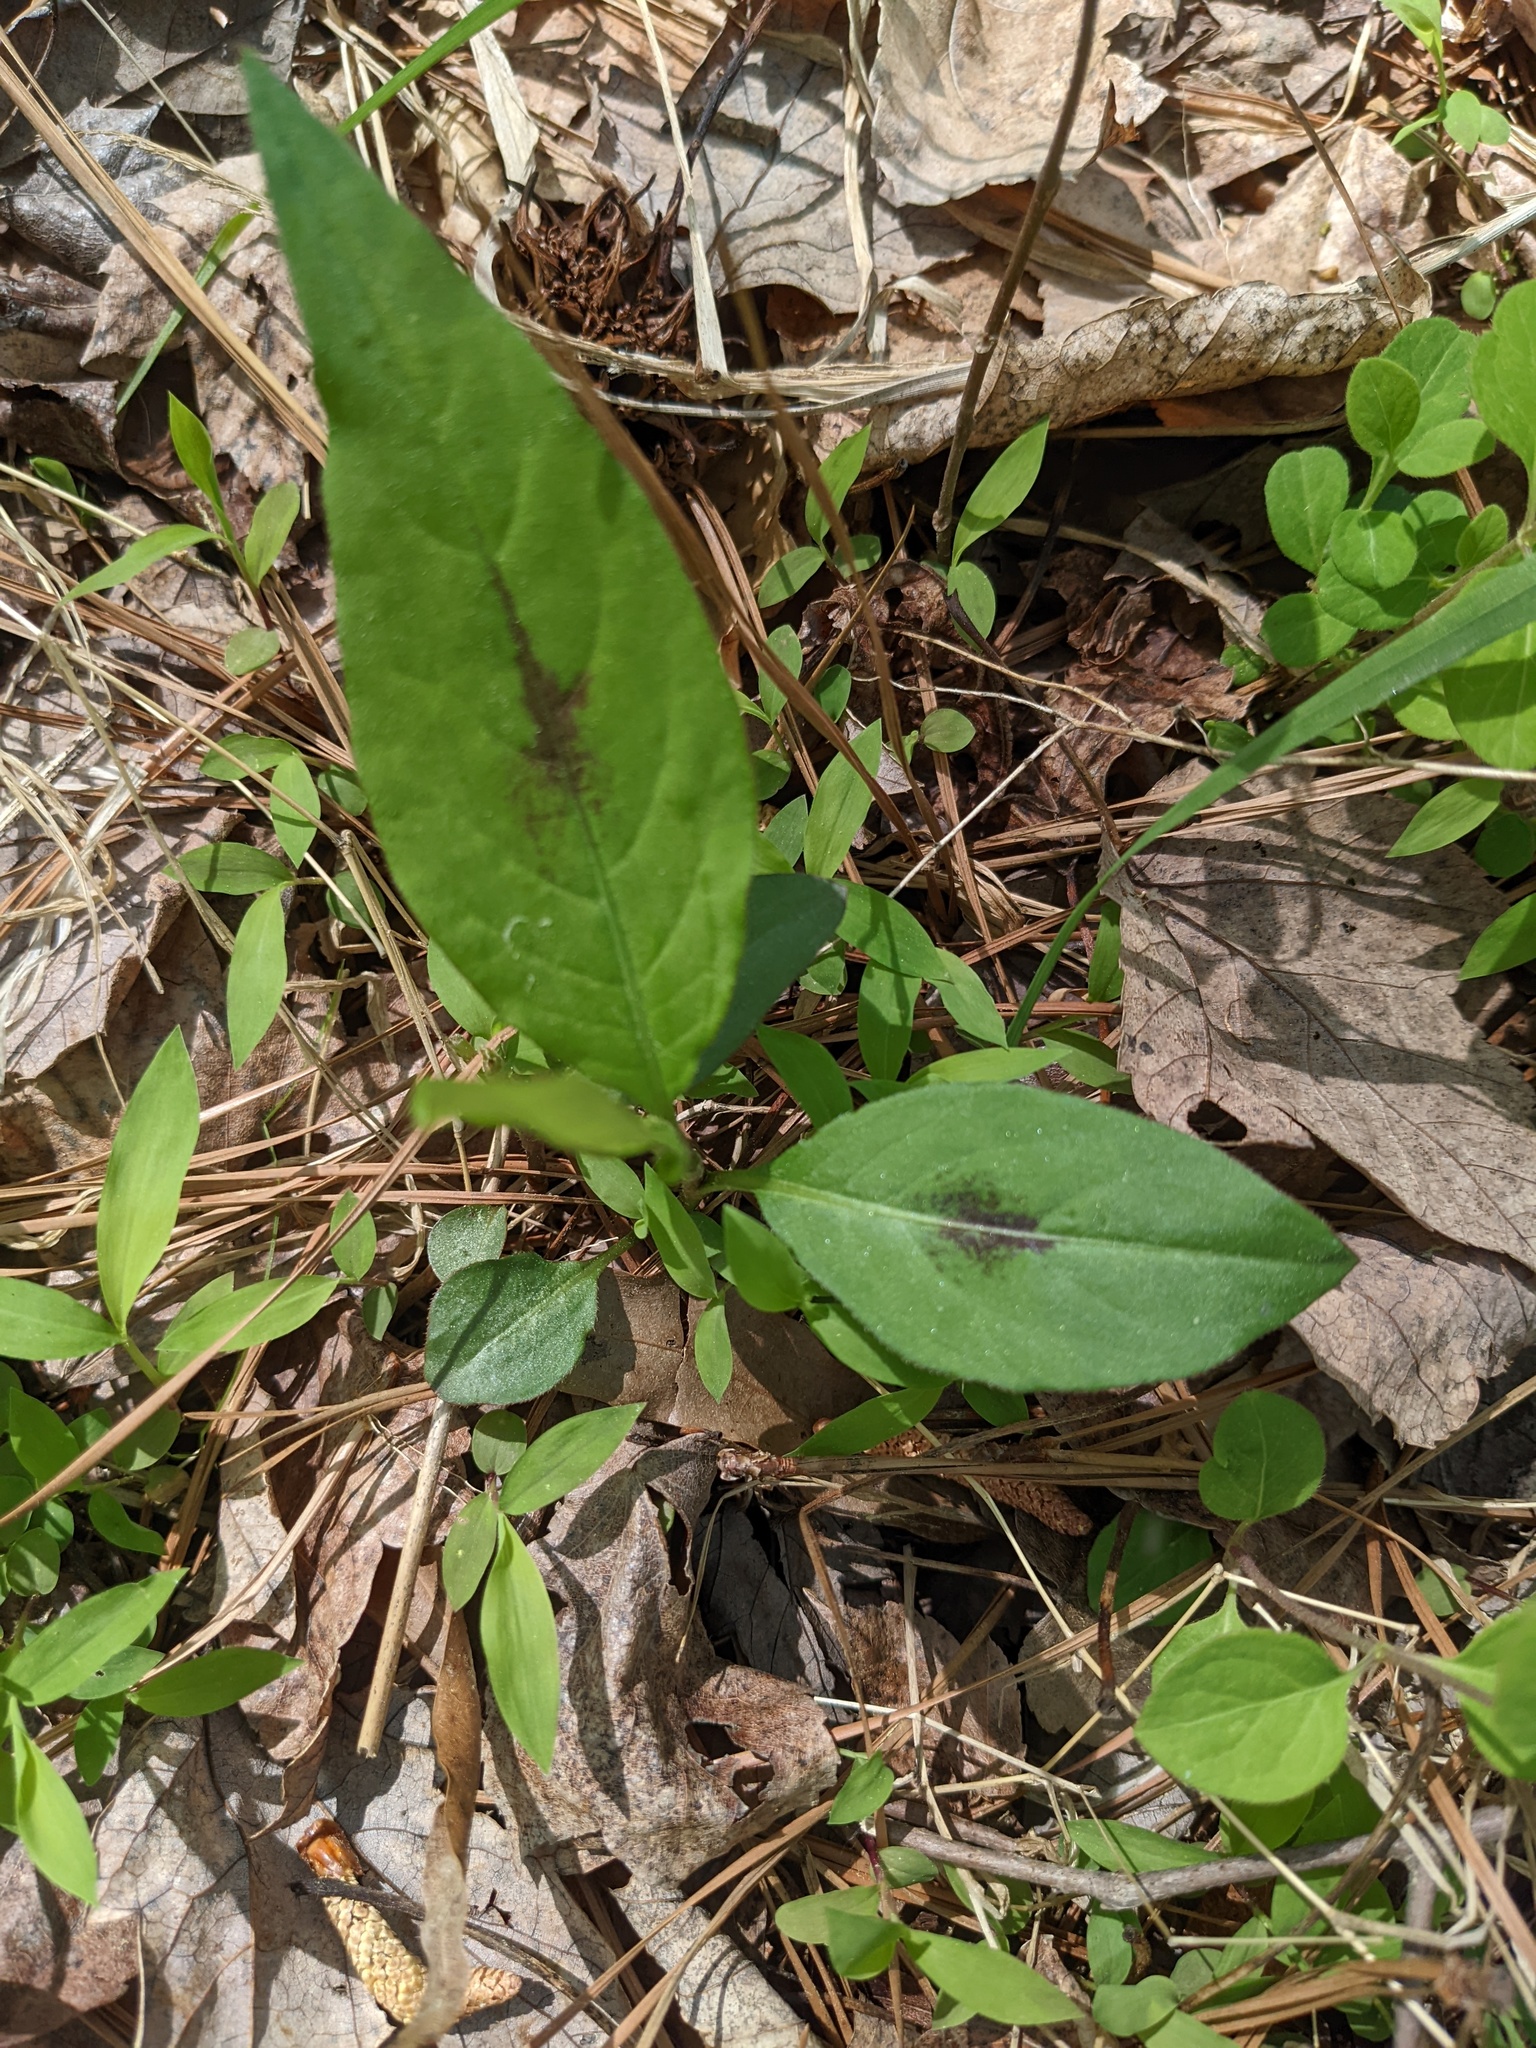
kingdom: Plantae
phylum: Tracheophyta
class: Magnoliopsida
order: Caryophyllales
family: Polygonaceae
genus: Persicaria
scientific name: Persicaria virginiana
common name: Jumpseed
